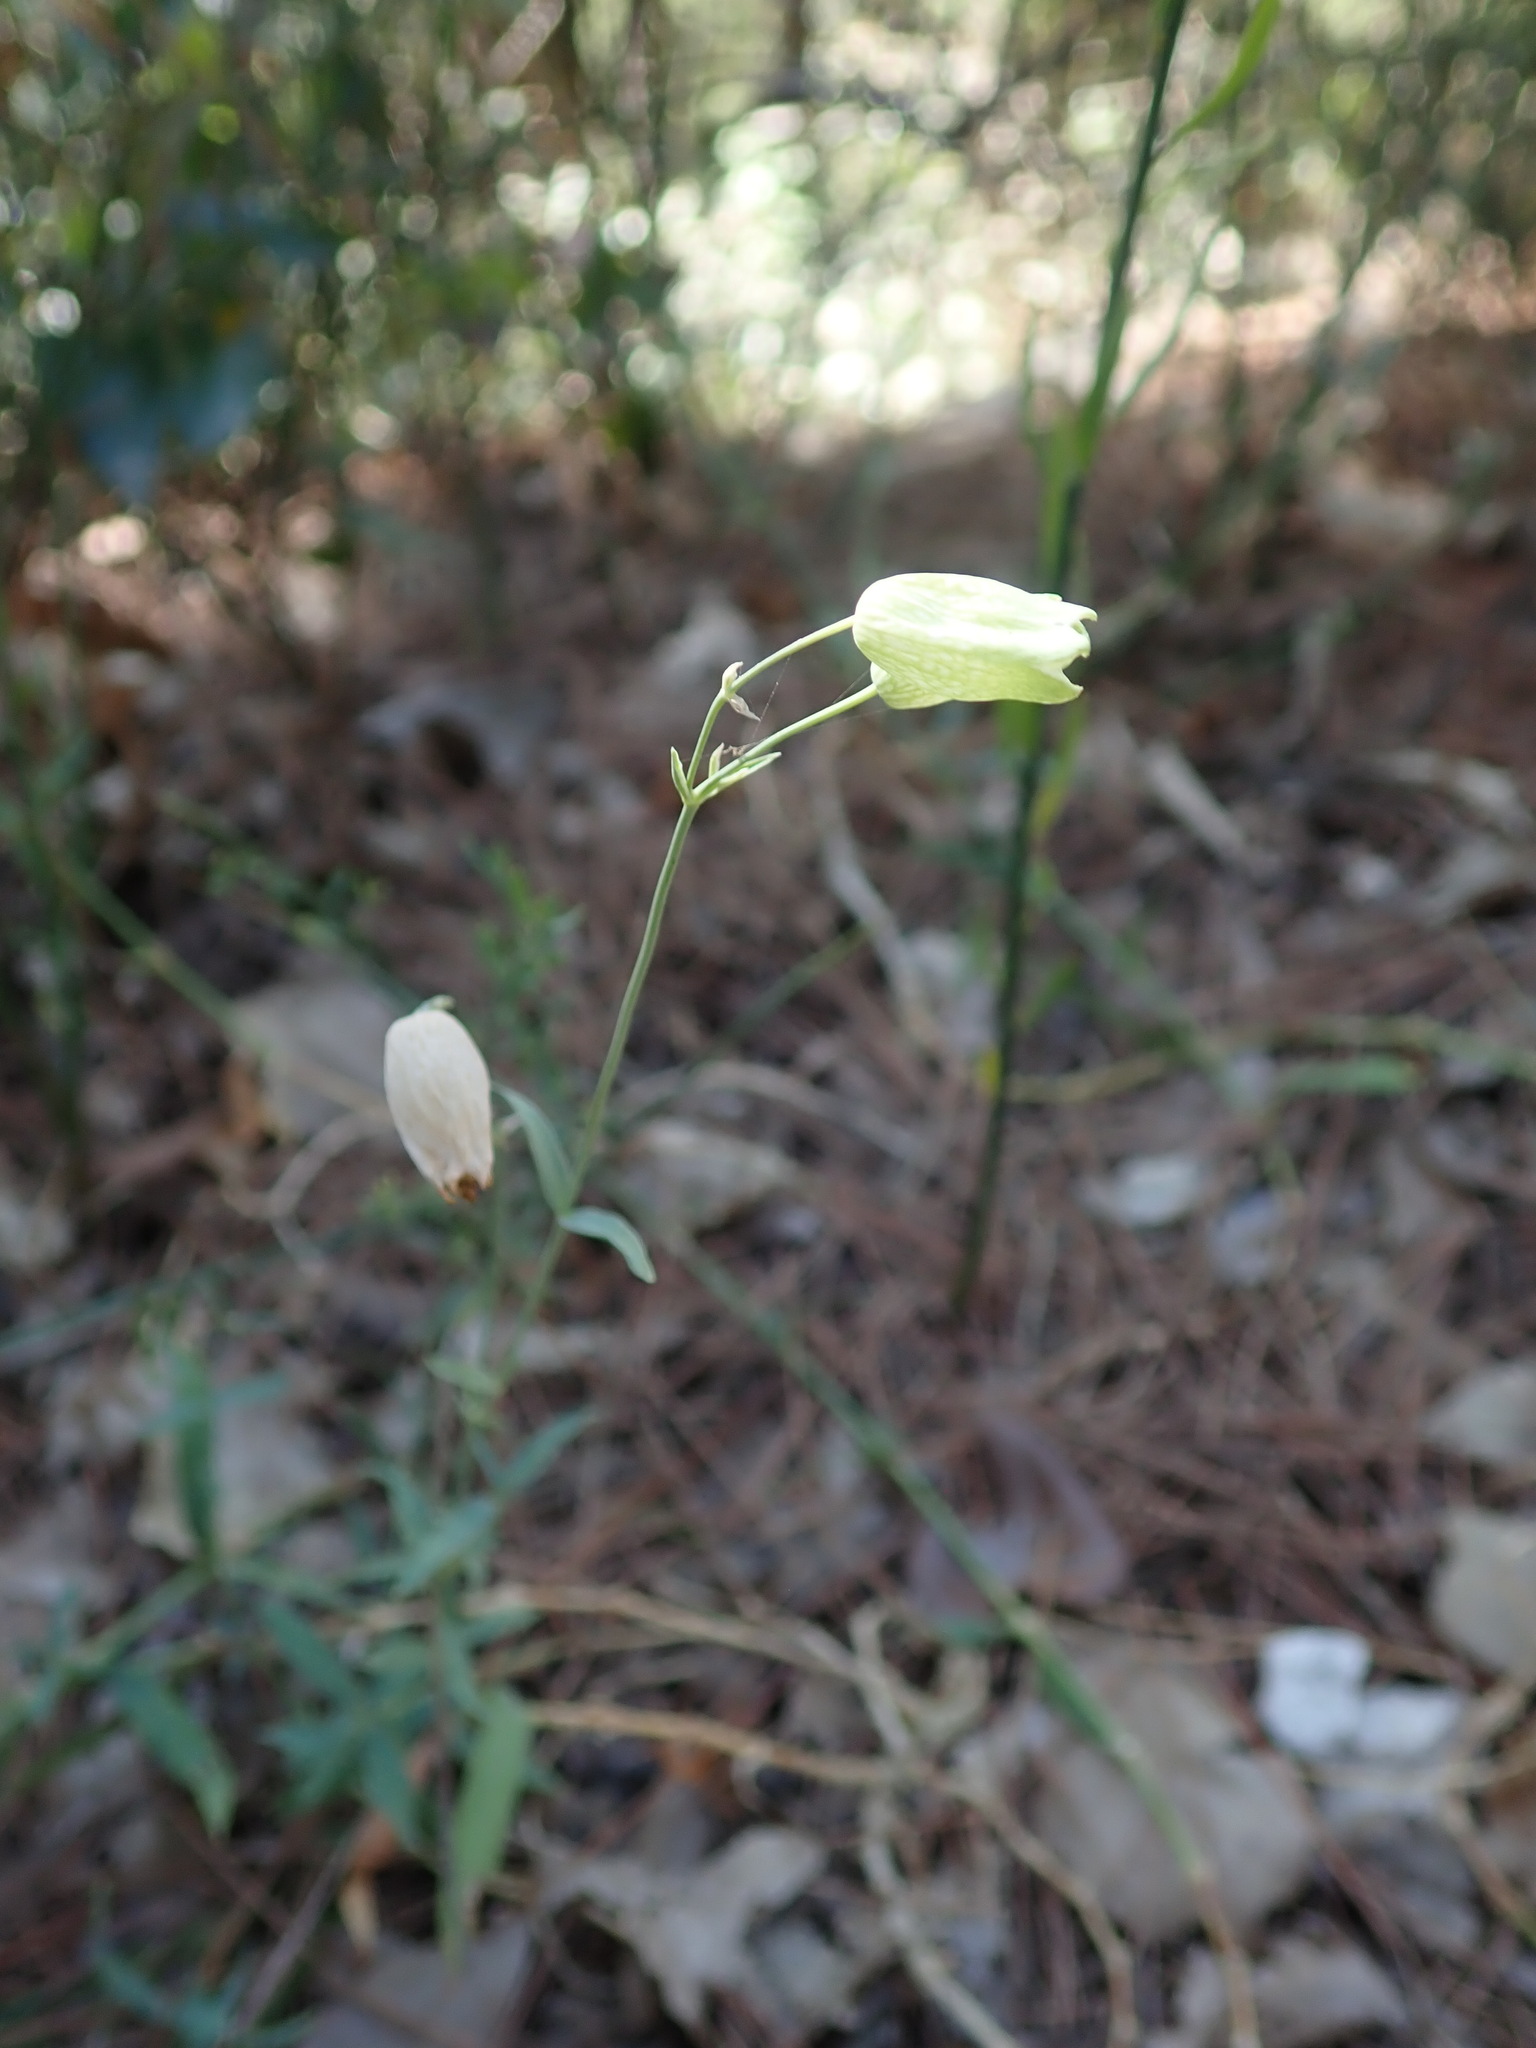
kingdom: Plantae
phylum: Tracheophyta
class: Magnoliopsida
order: Caryophyllales
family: Caryophyllaceae
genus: Silene
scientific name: Silene vulgaris
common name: Bladder campion
